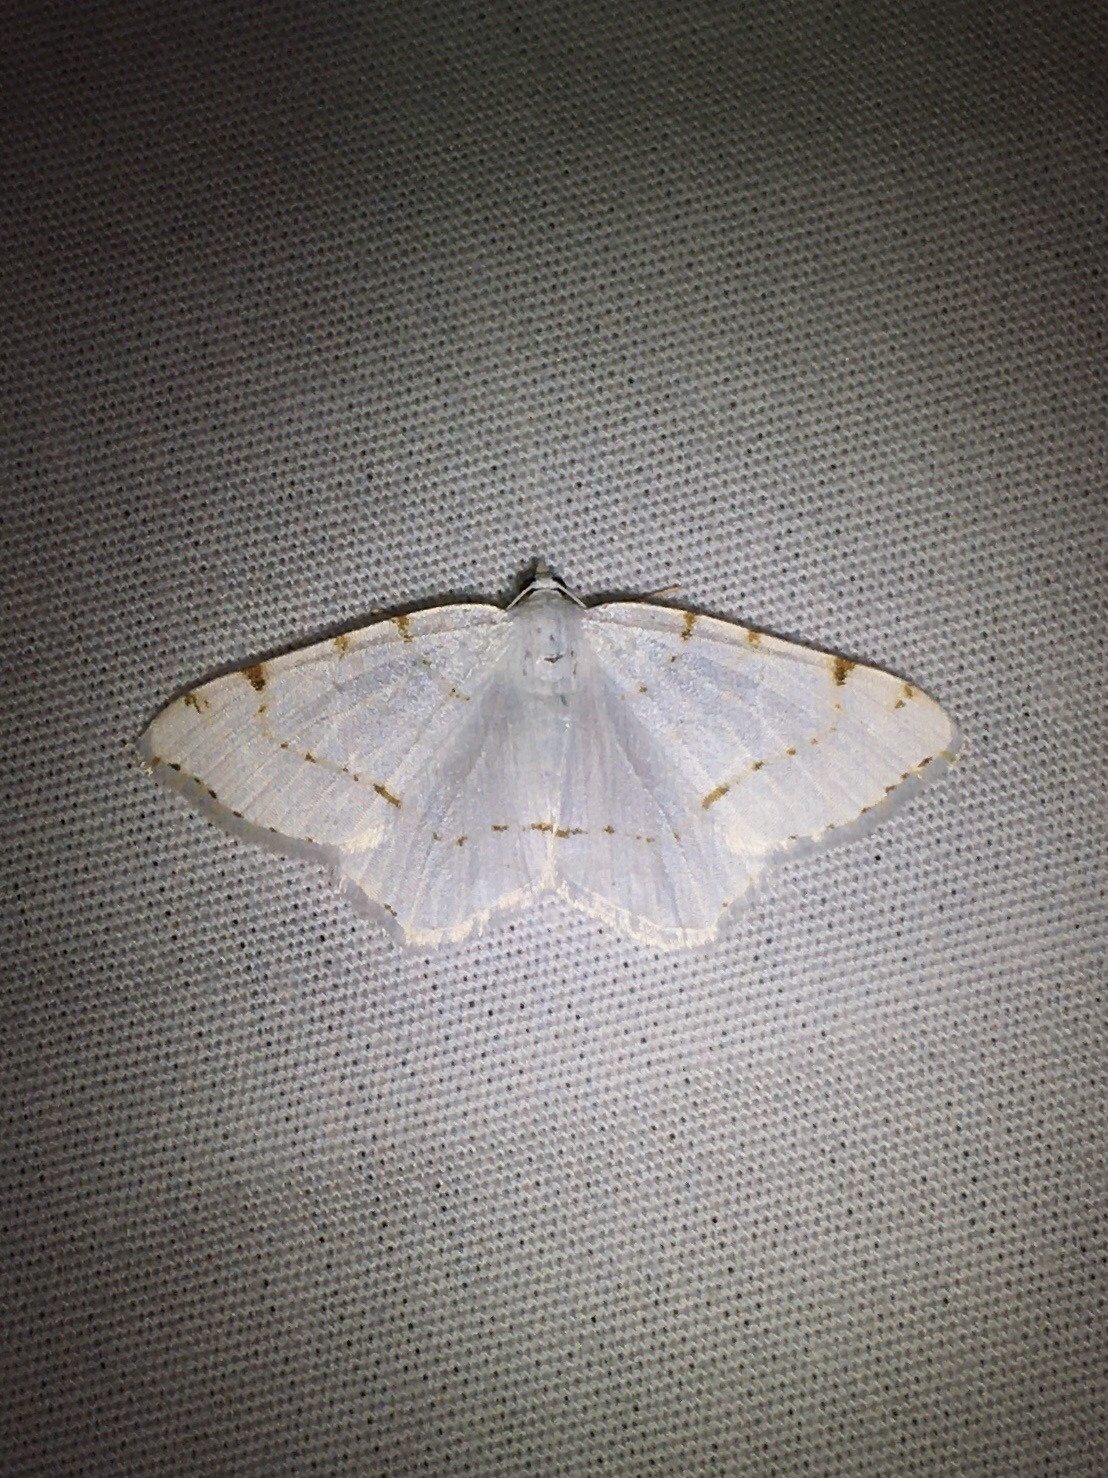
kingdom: Animalia
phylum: Arthropoda
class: Insecta
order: Lepidoptera
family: Geometridae
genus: Macaria
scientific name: Macaria pustularia
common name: Lesser maple spanworm moth
